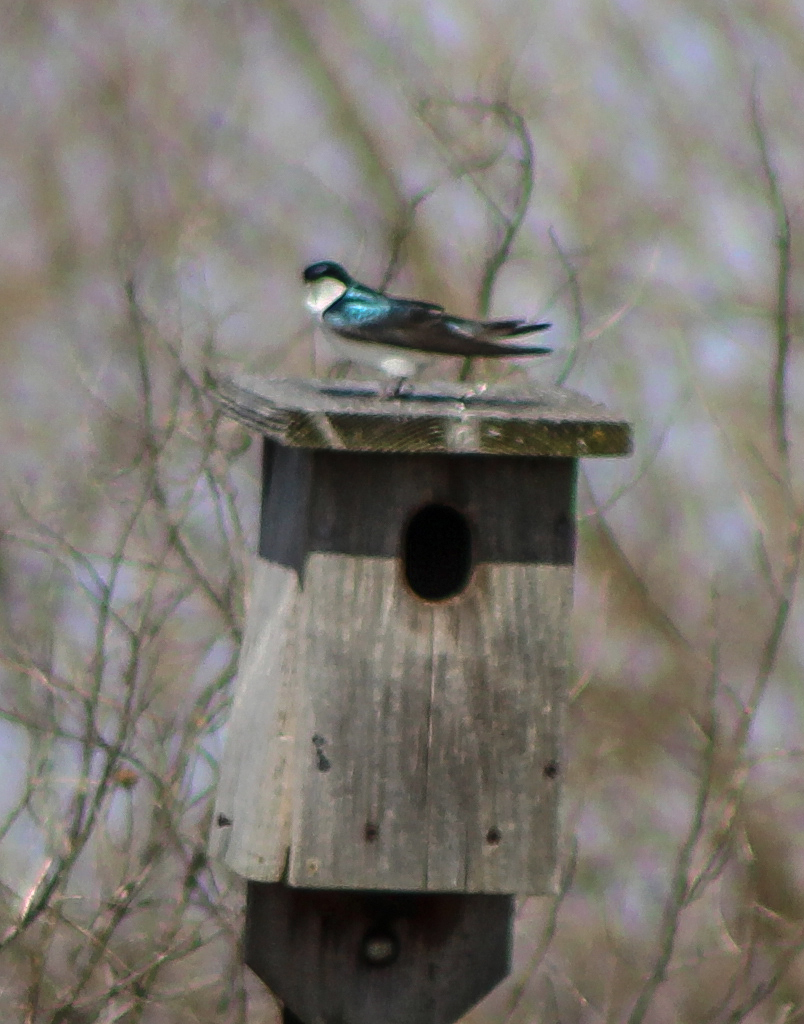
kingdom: Animalia
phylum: Chordata
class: Aves
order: Passeriformes
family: Hirundinidae
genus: Tachycineta
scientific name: Tachycineta bicolor
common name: Tree swallow
